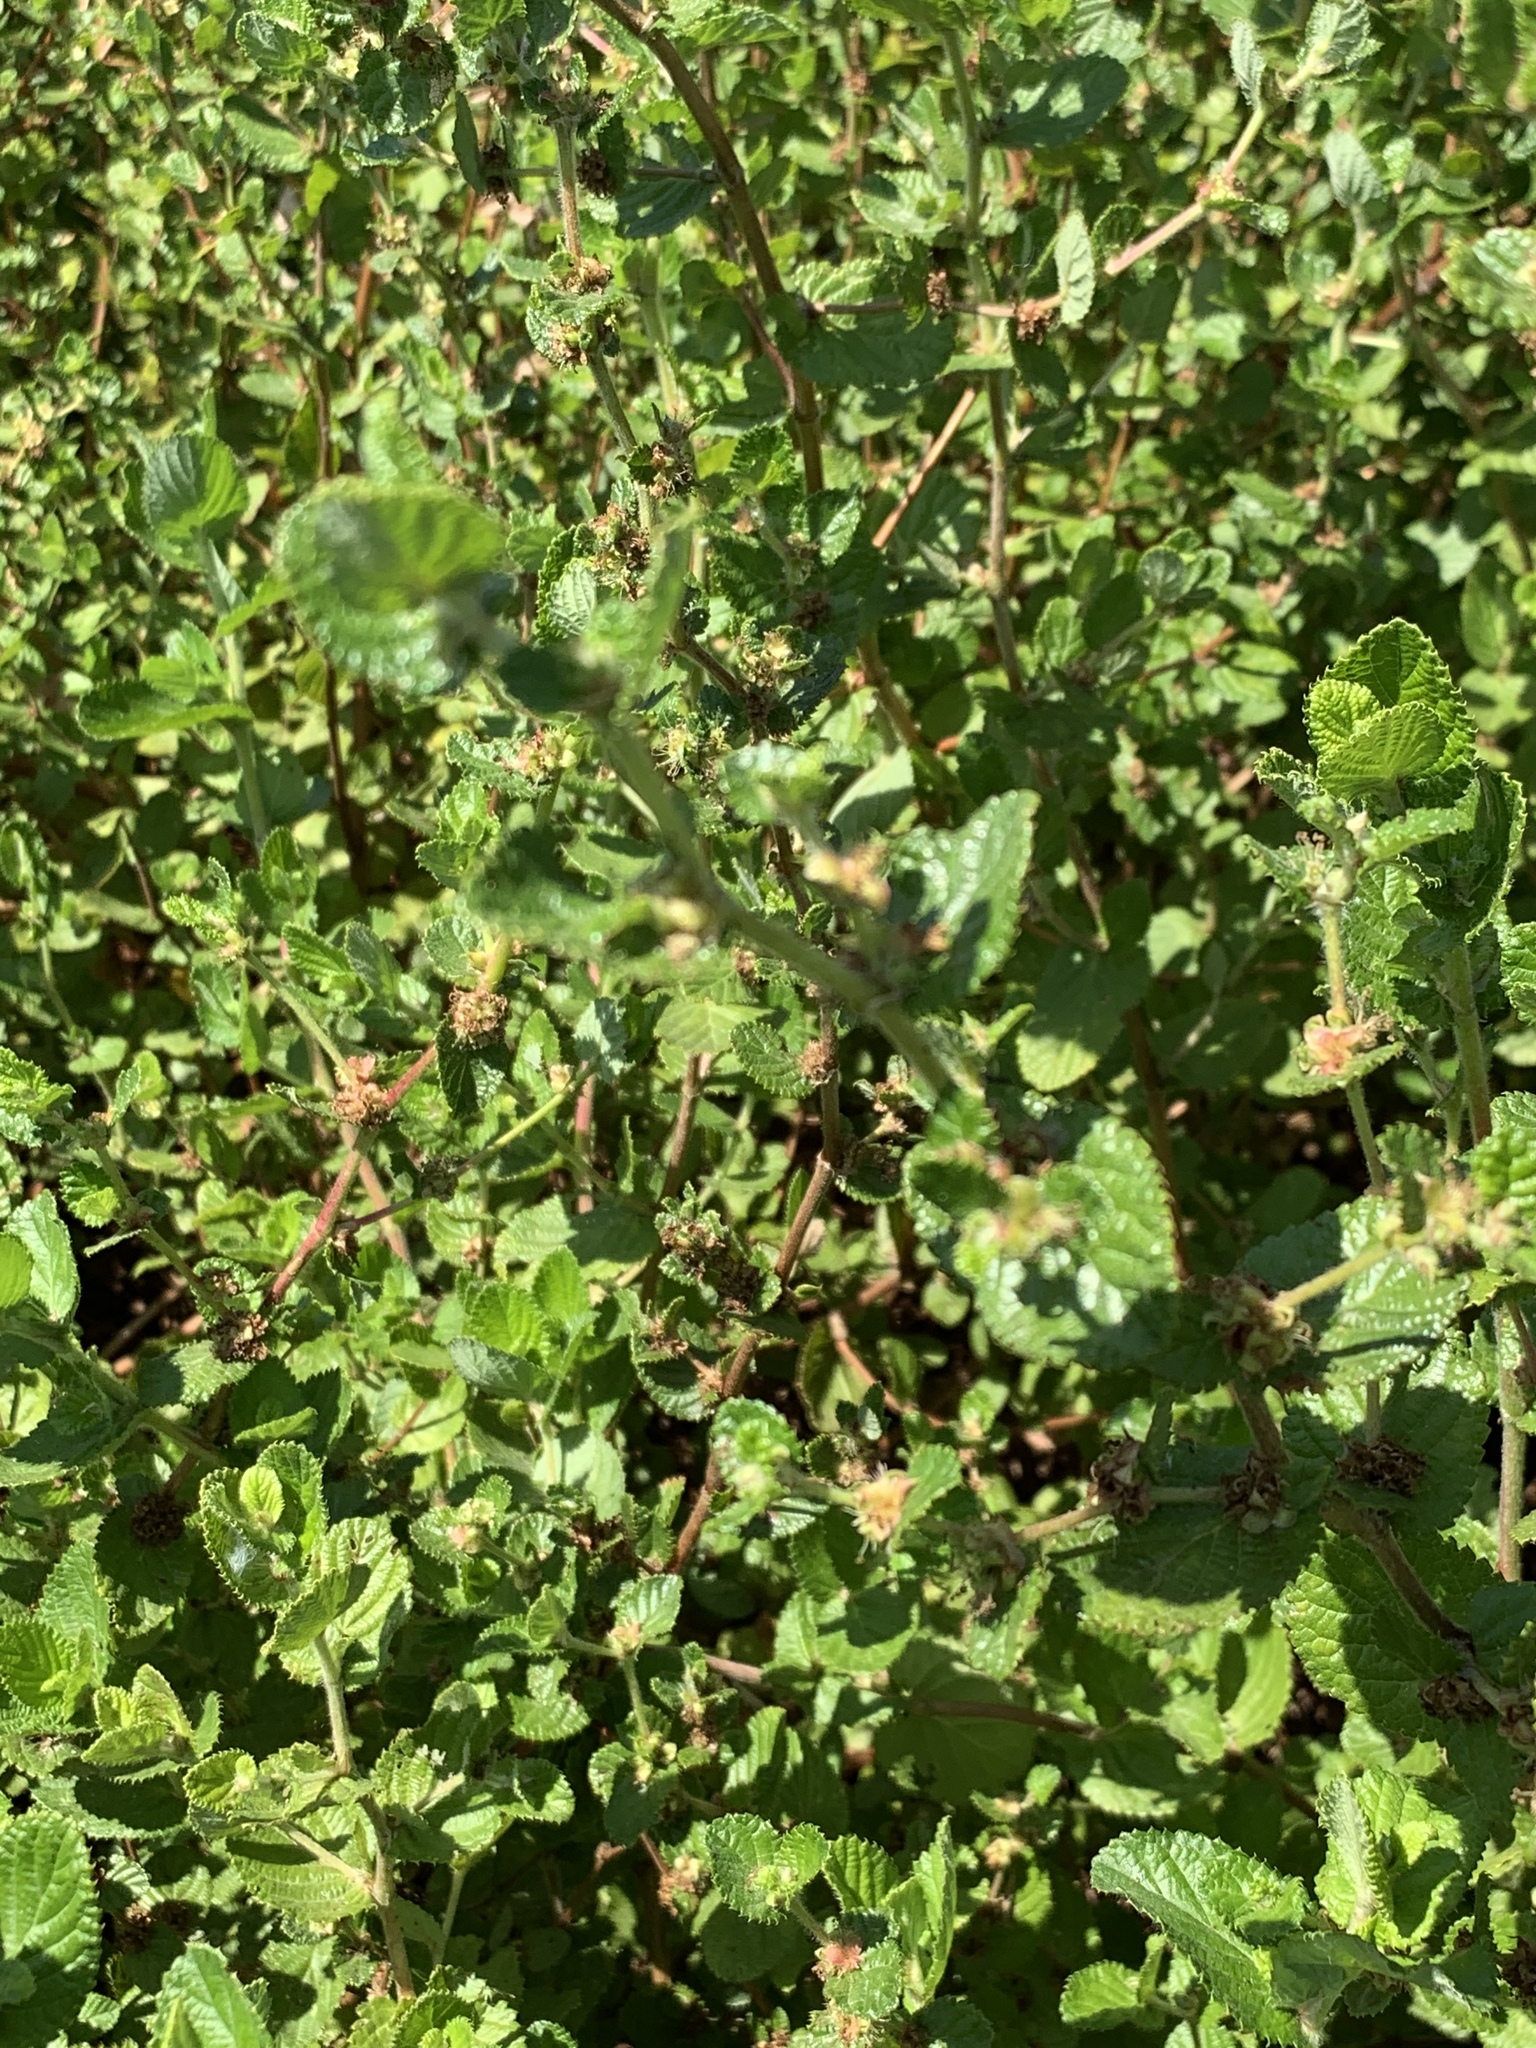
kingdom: Plantae
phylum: Tracheophyta
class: Magnoliopsida
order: Rosales
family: Rosaceae
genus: Cliffortia
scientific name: Cliffortia odorata
